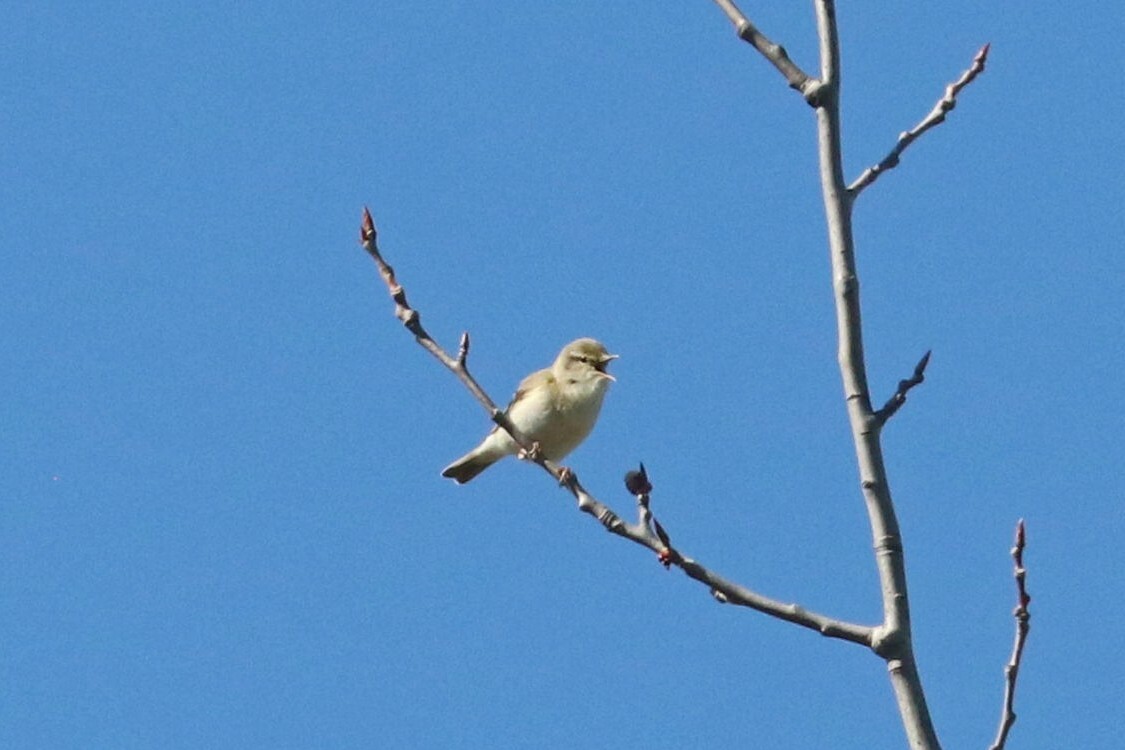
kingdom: Animalia
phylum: Chordata
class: Aves
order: Passeriformes
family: Phylloscopidae
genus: Phylloscopus
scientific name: Phylloscopus trochilus
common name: Willow warbler
